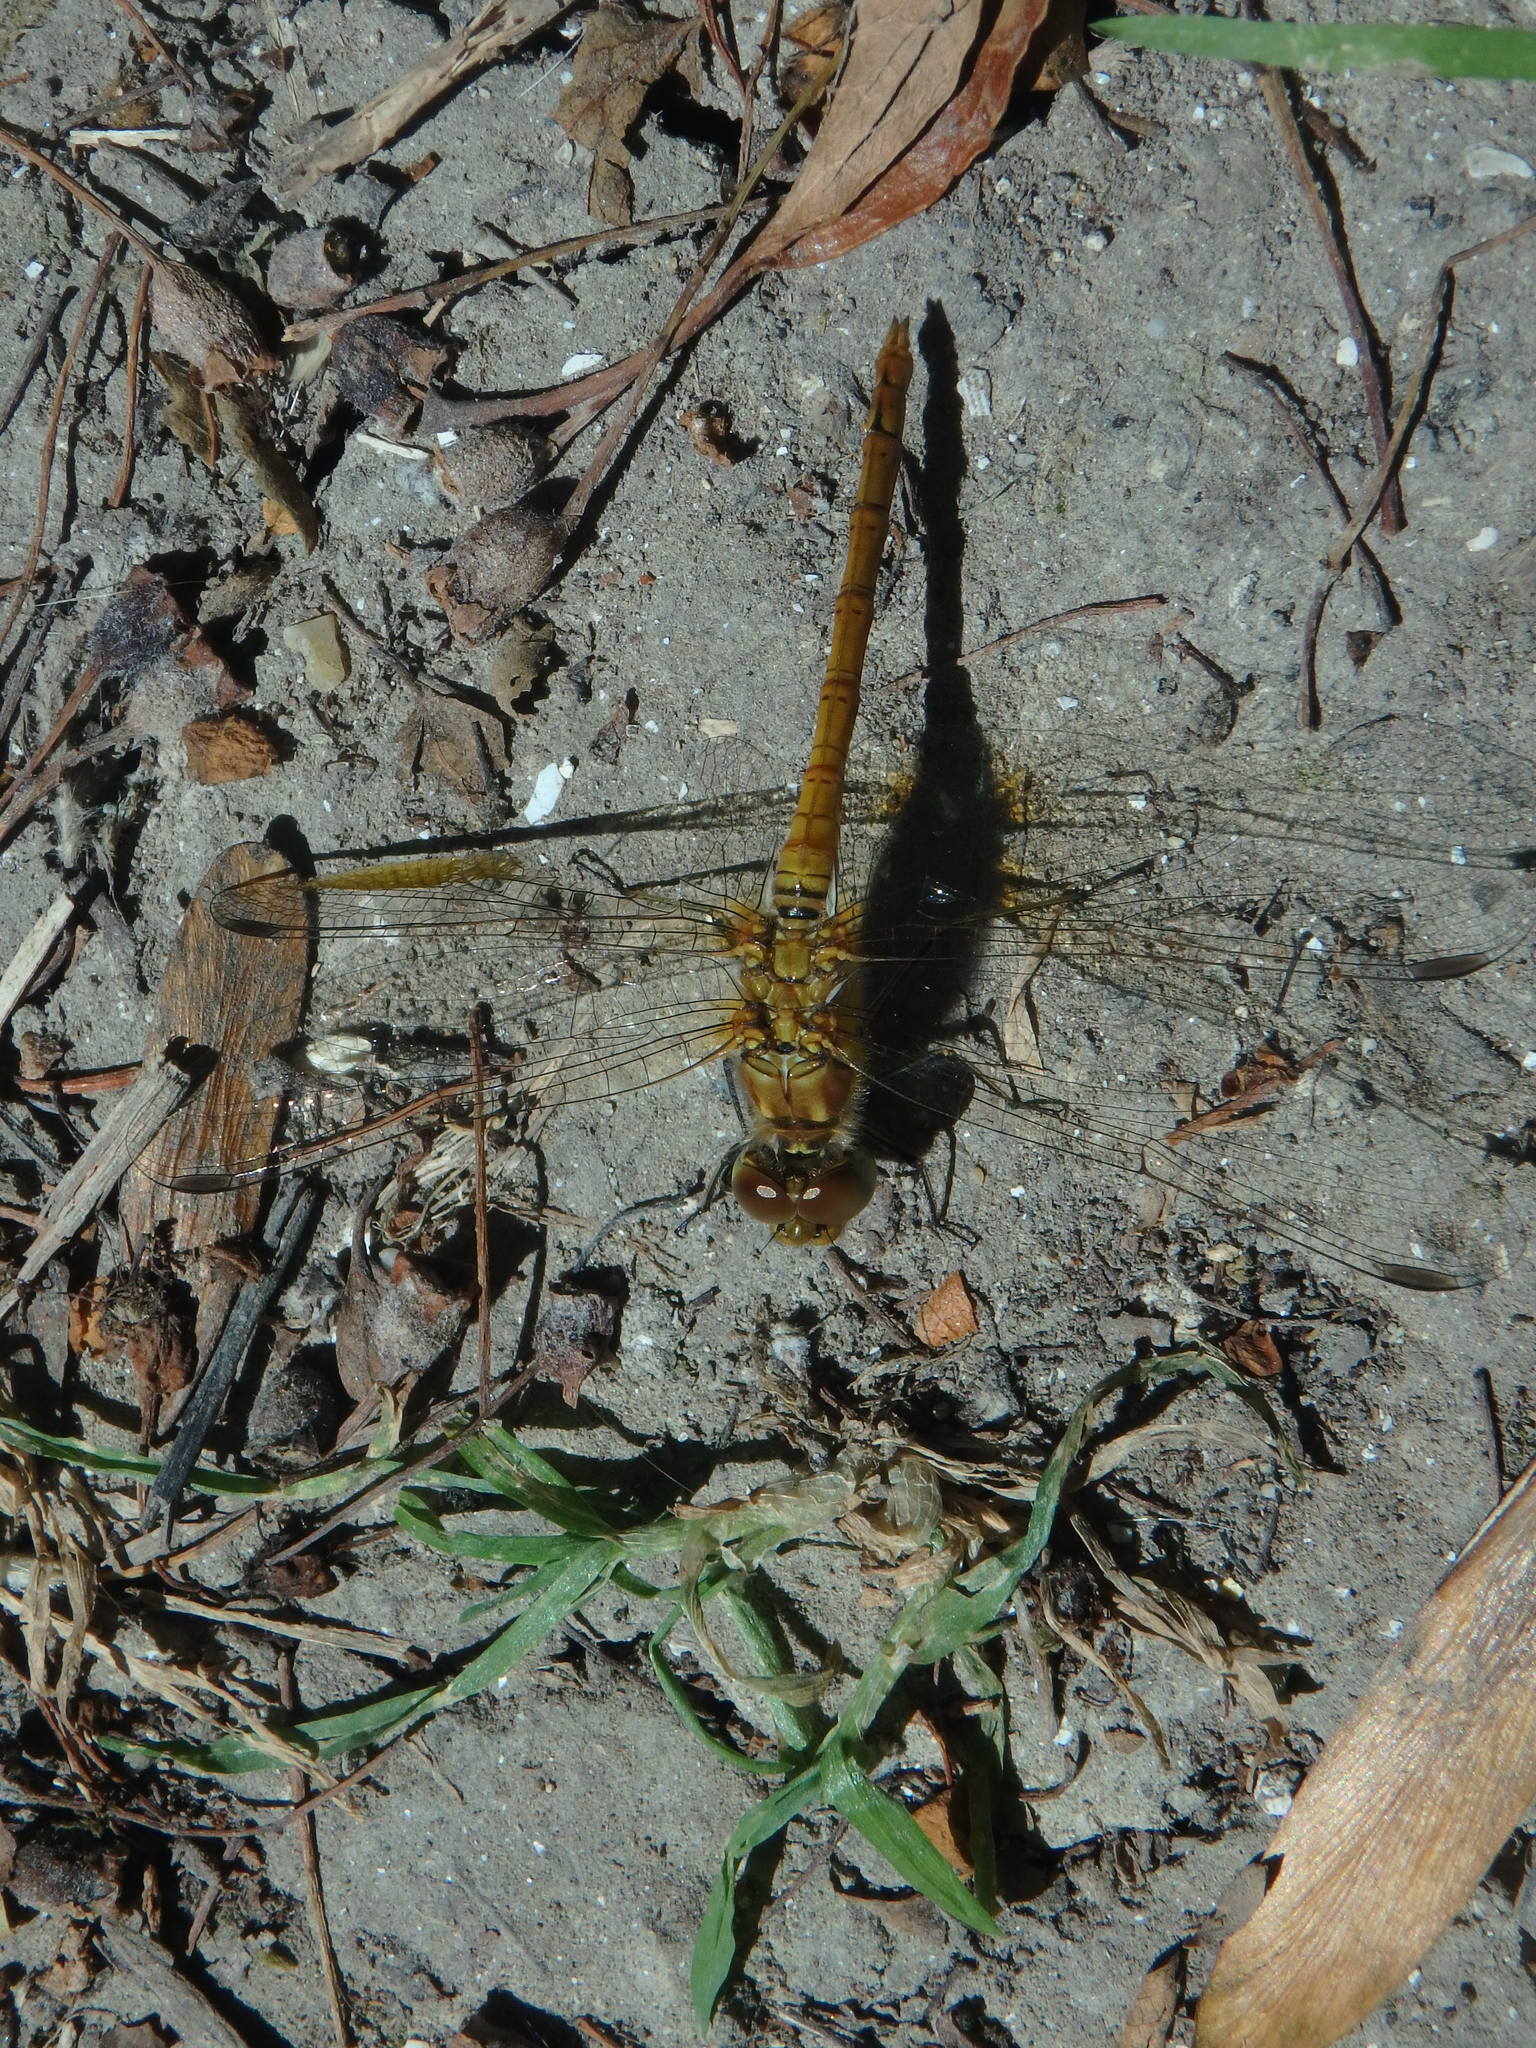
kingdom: Animalia
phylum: Arthropoda
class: Insecta
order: Odonata
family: Libellulidae
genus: Sympetrum
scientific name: Sympetrum striolatum
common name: Common darter
